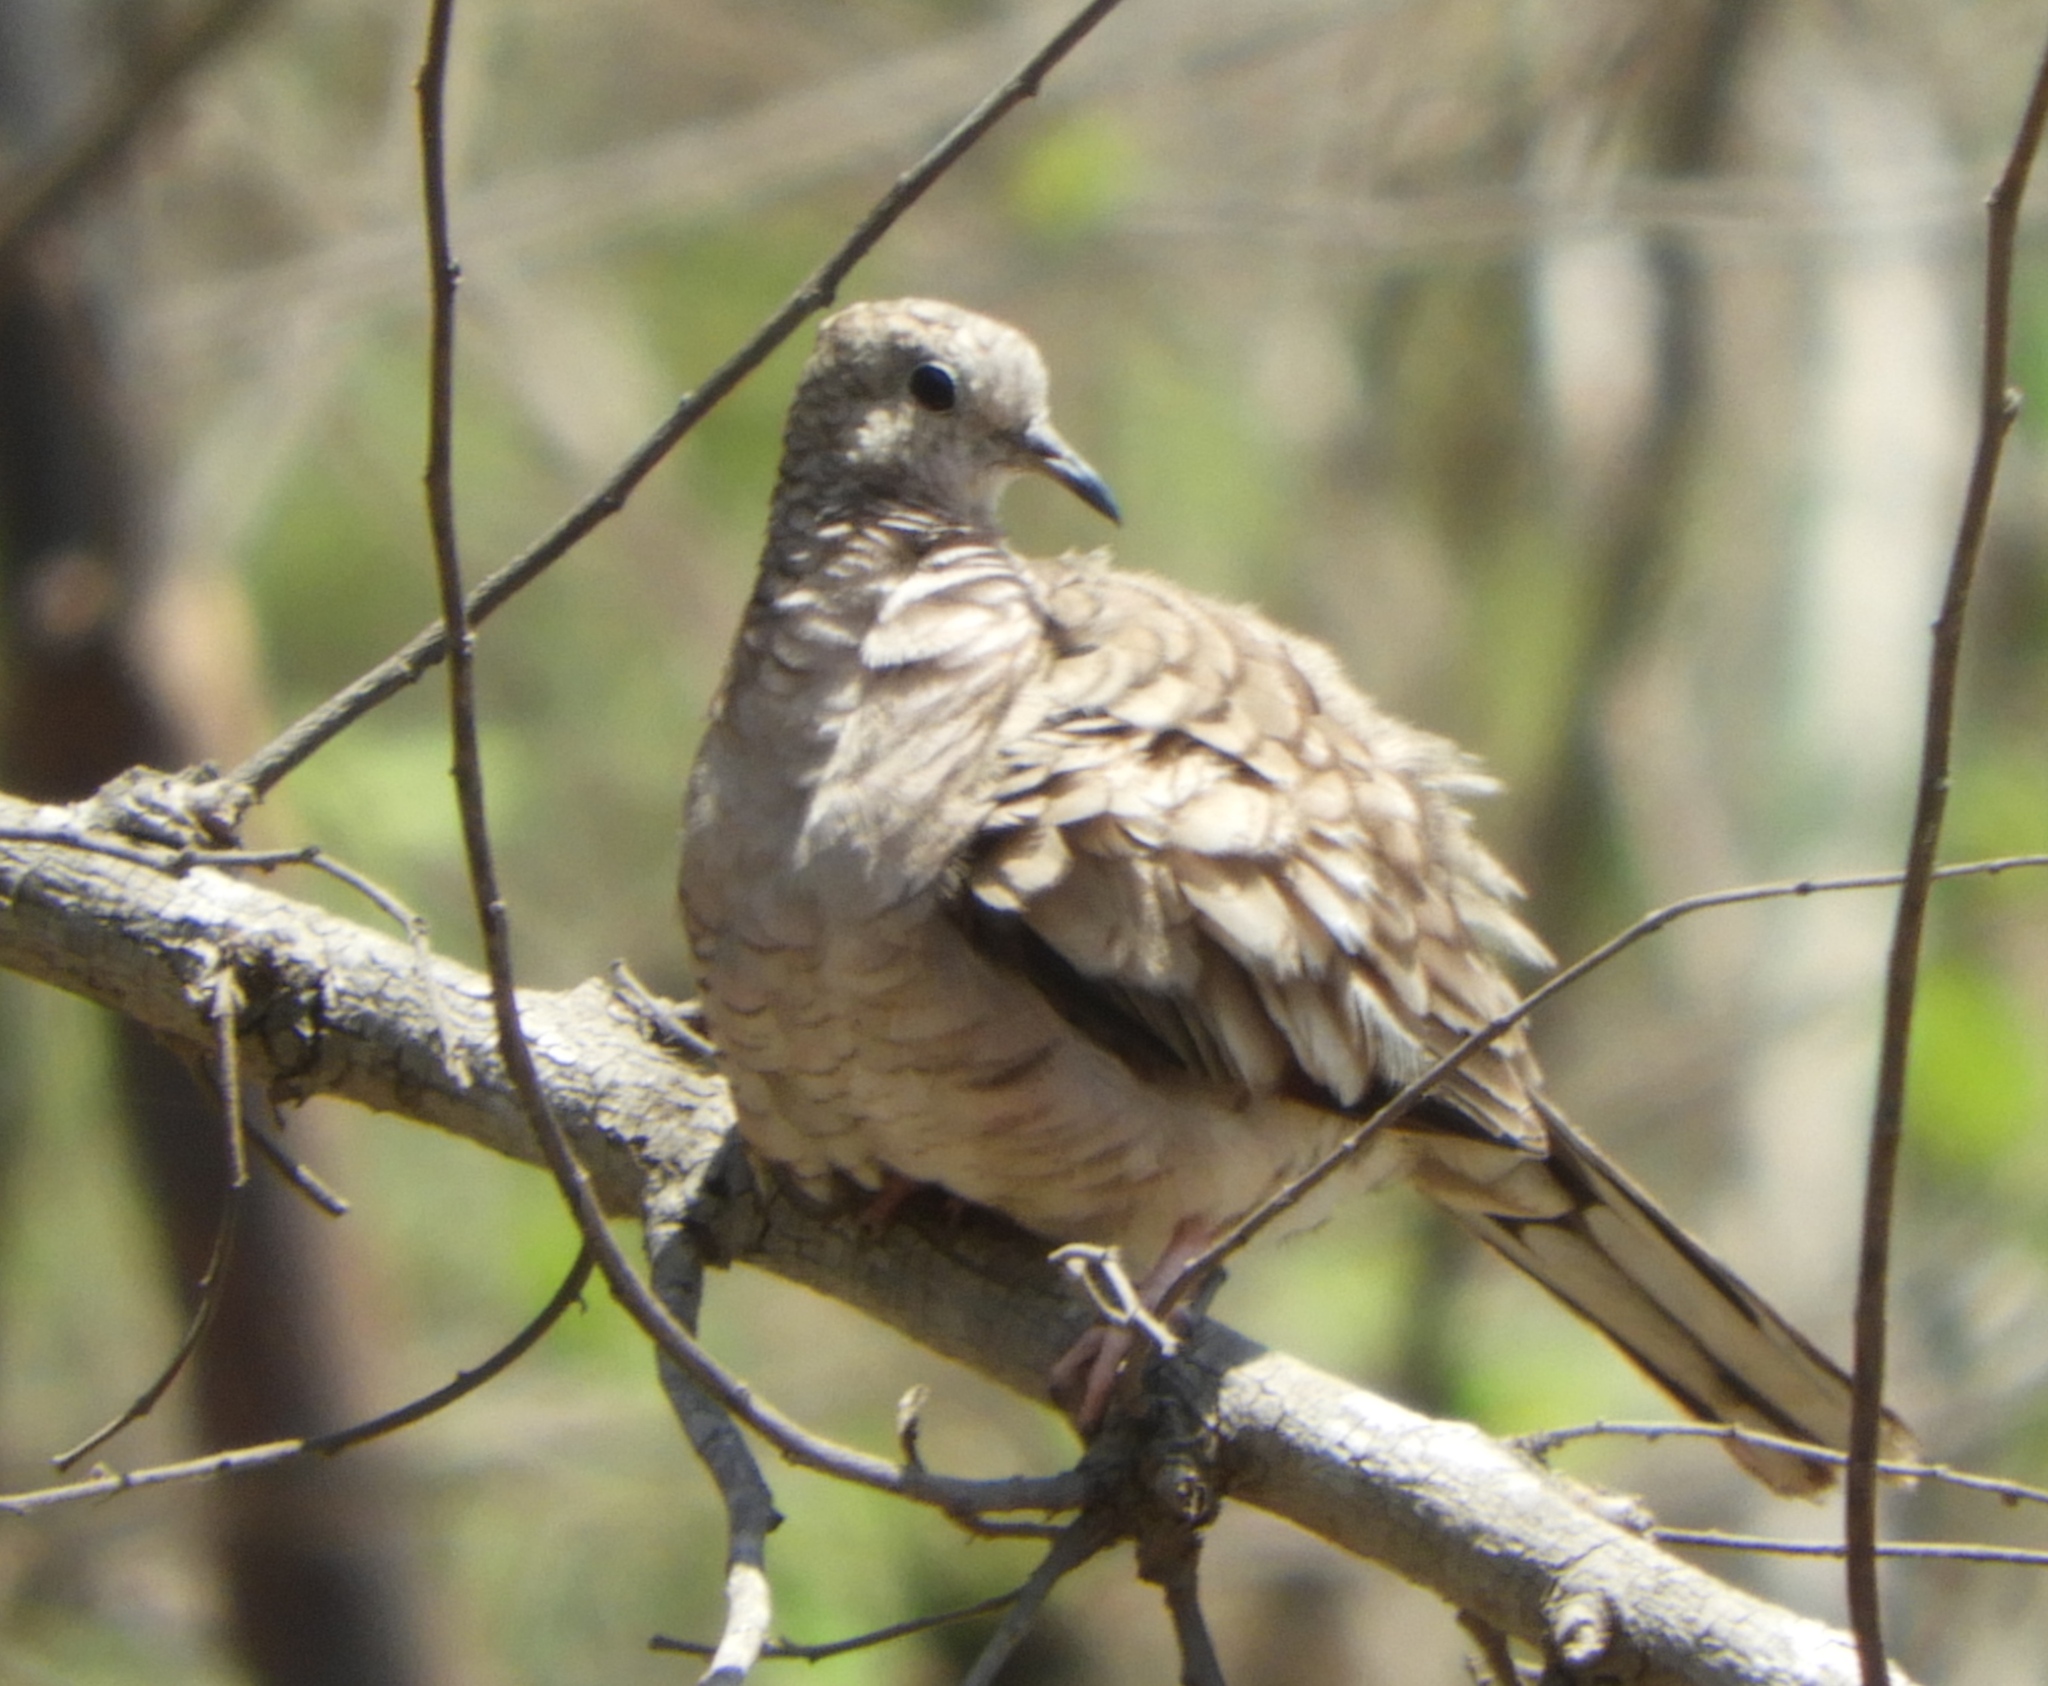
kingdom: Animalia
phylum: Chordata
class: Aves
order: Columbiformes
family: Columbidae
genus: Columbina
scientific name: Columbina inca
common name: Inca dove
